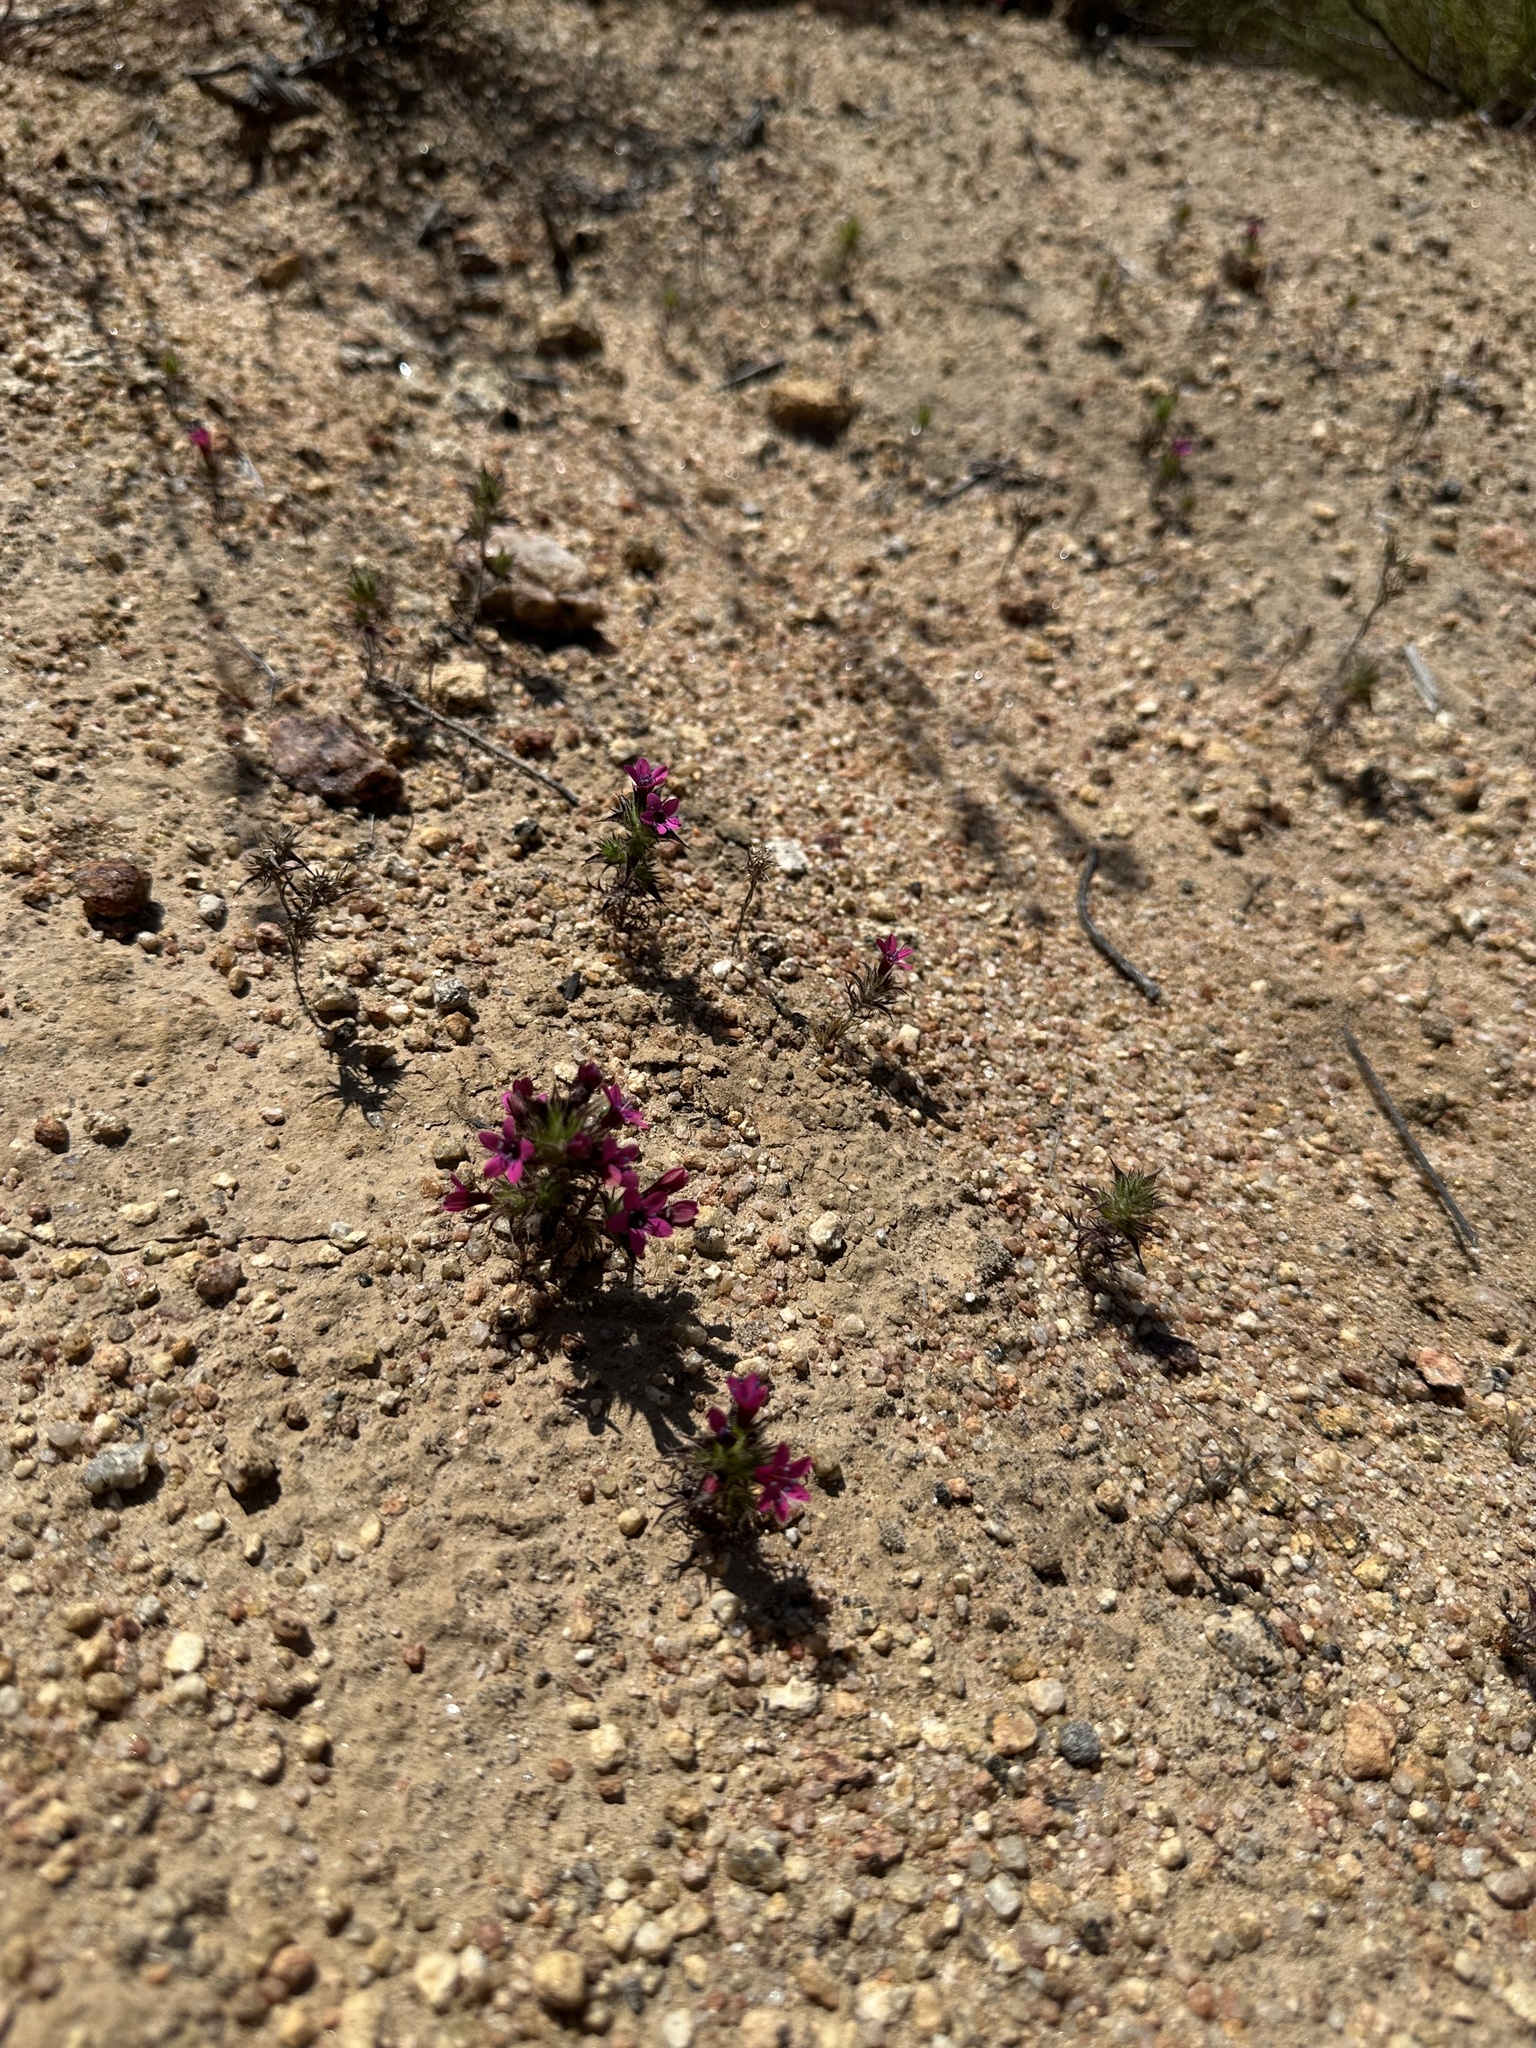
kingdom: Plantae
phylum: Tracheophyta
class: Magnoliopsida
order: Ericales
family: Polemoniaceae
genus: Navarretia
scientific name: Navarretia hamata
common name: Hooked navarretia
